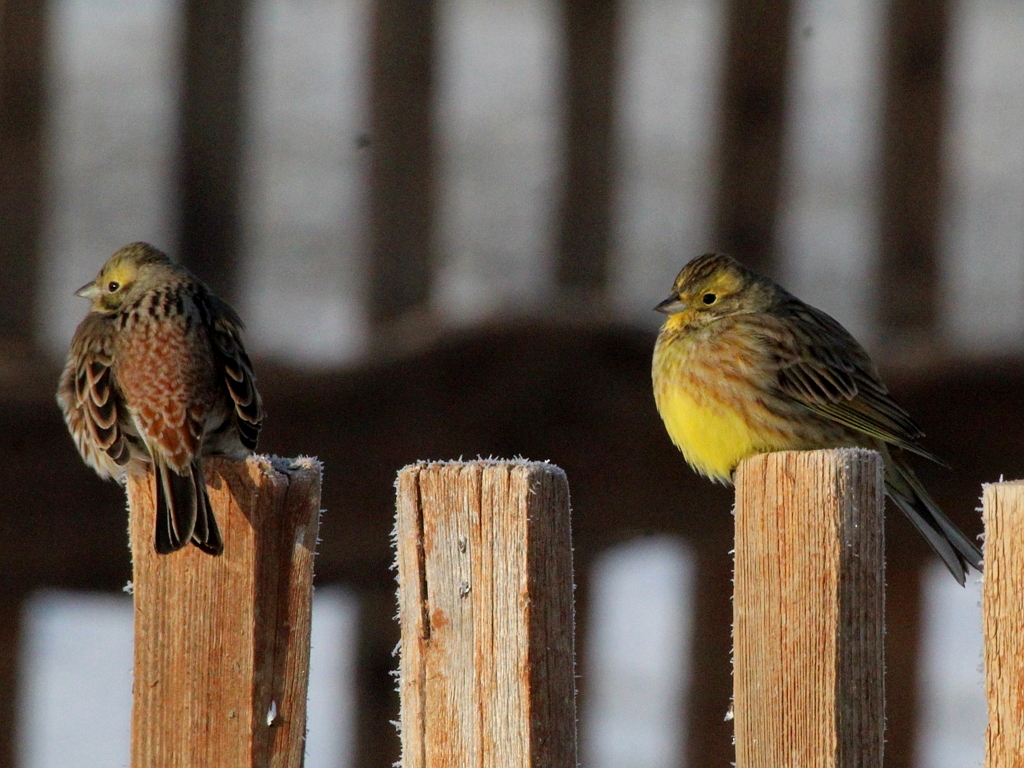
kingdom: Animalia
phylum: Chordata
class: Aves
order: Passeriformes
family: Emberizidae
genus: Emberiza
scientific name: Emberiza citrinella
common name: Yellowhammer
